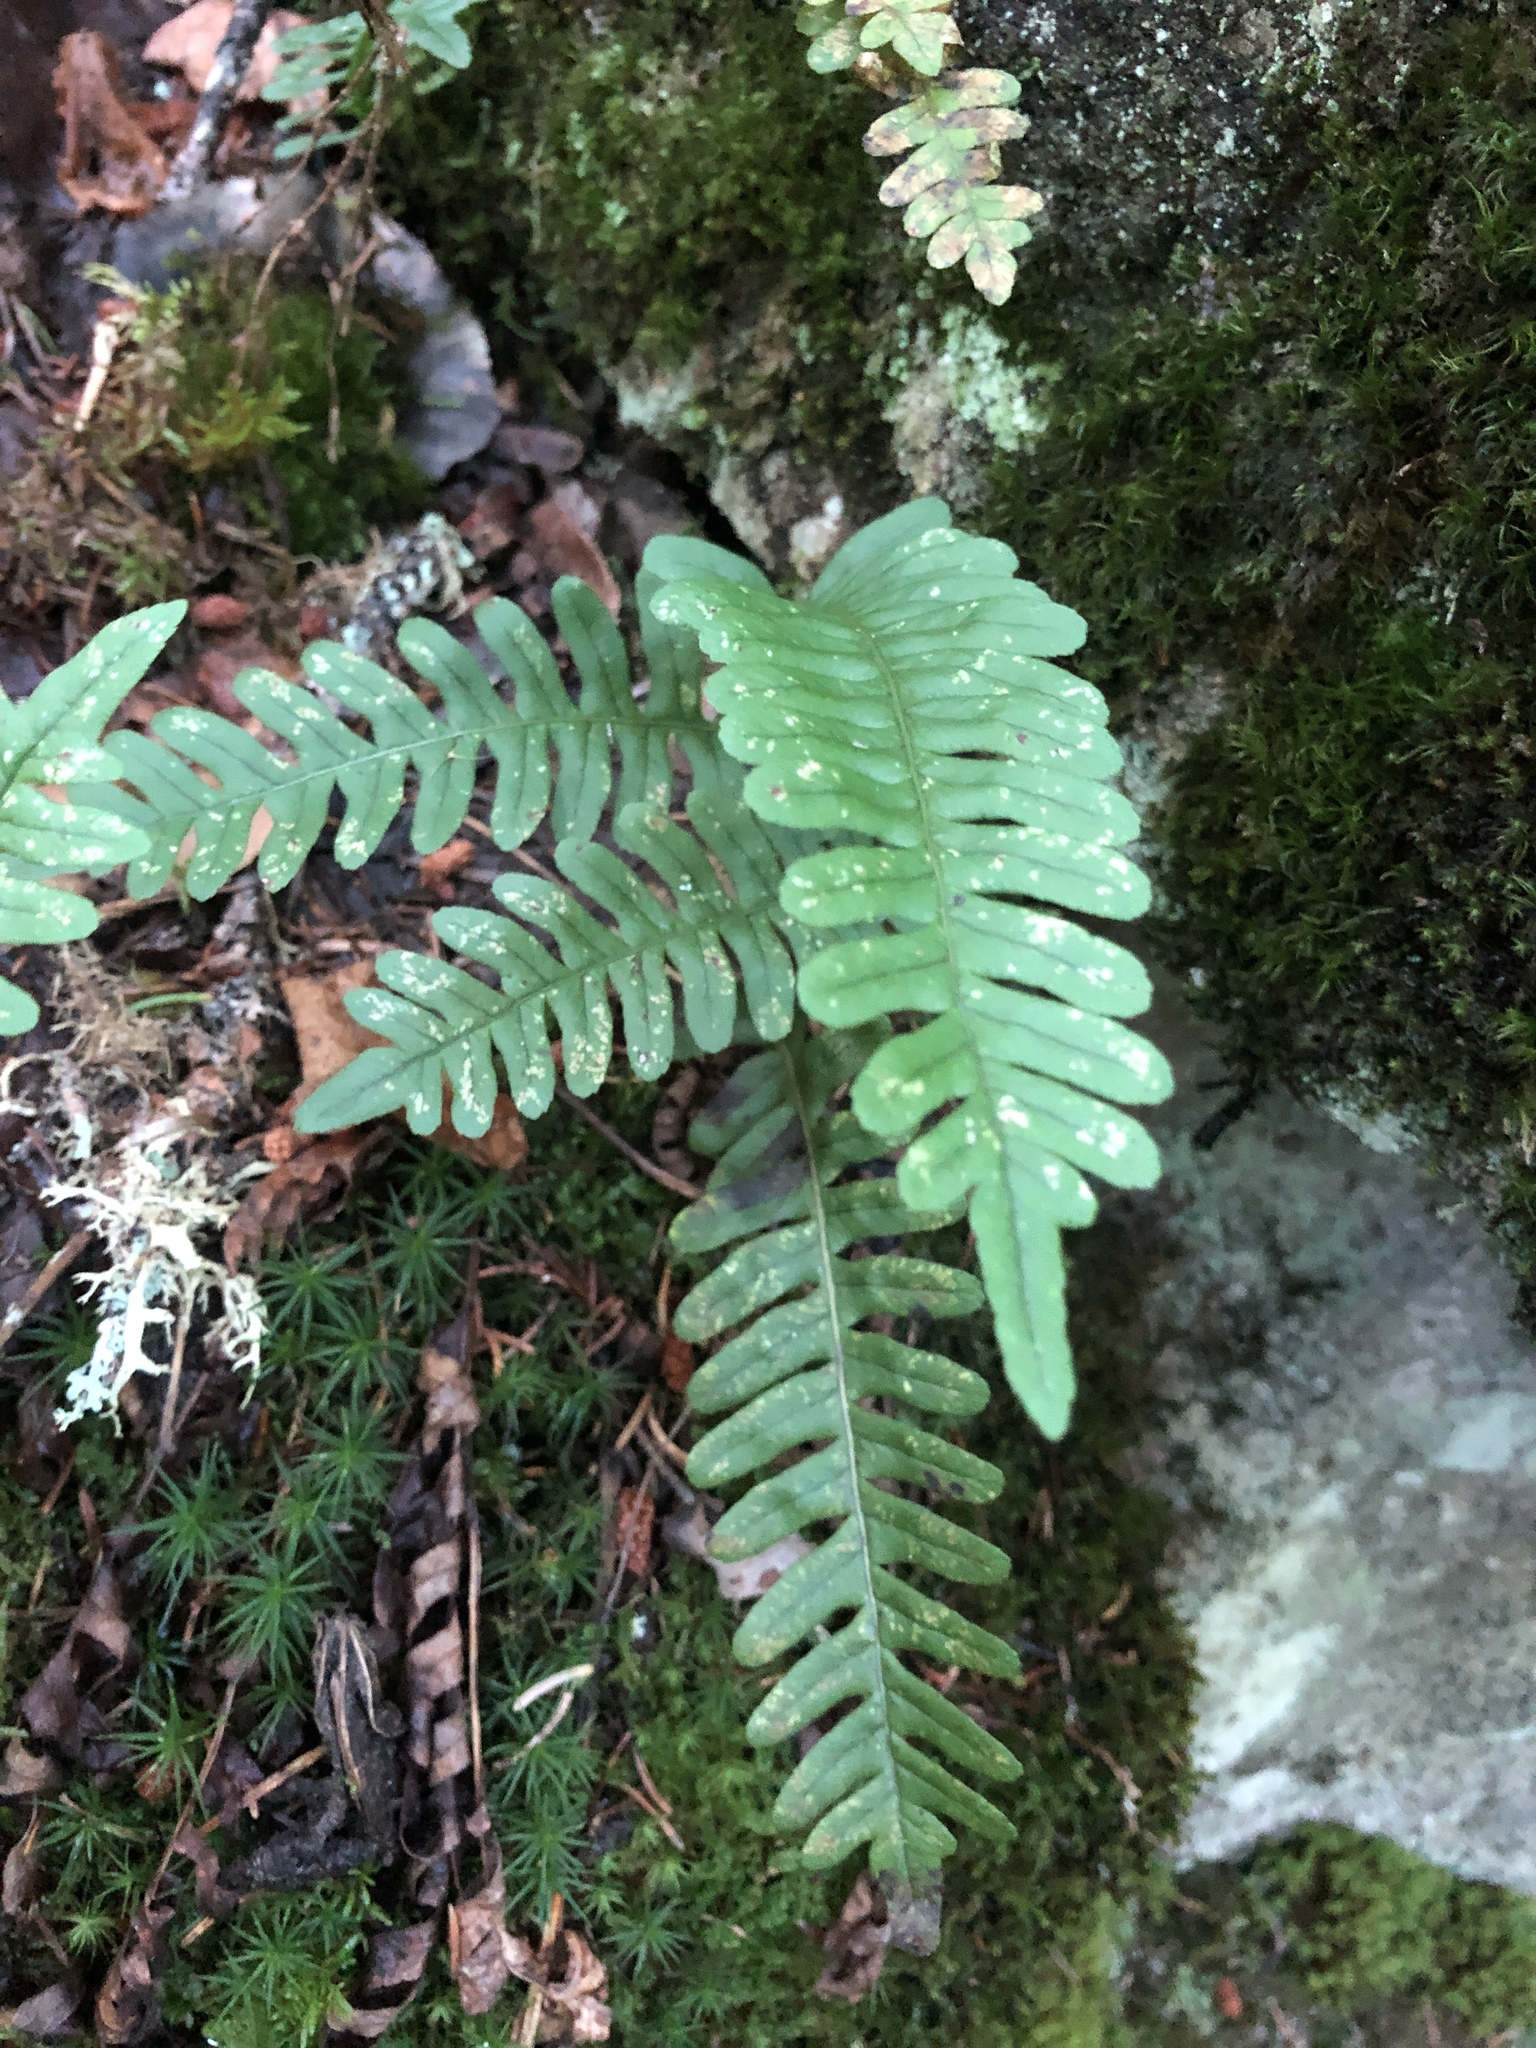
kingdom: Plantae
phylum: Tracheophyta
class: Polypodiopsida
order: Polypodiales
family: Polypodiaceae
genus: Polypodium
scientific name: Polypodium virginianum
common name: American wall fern
